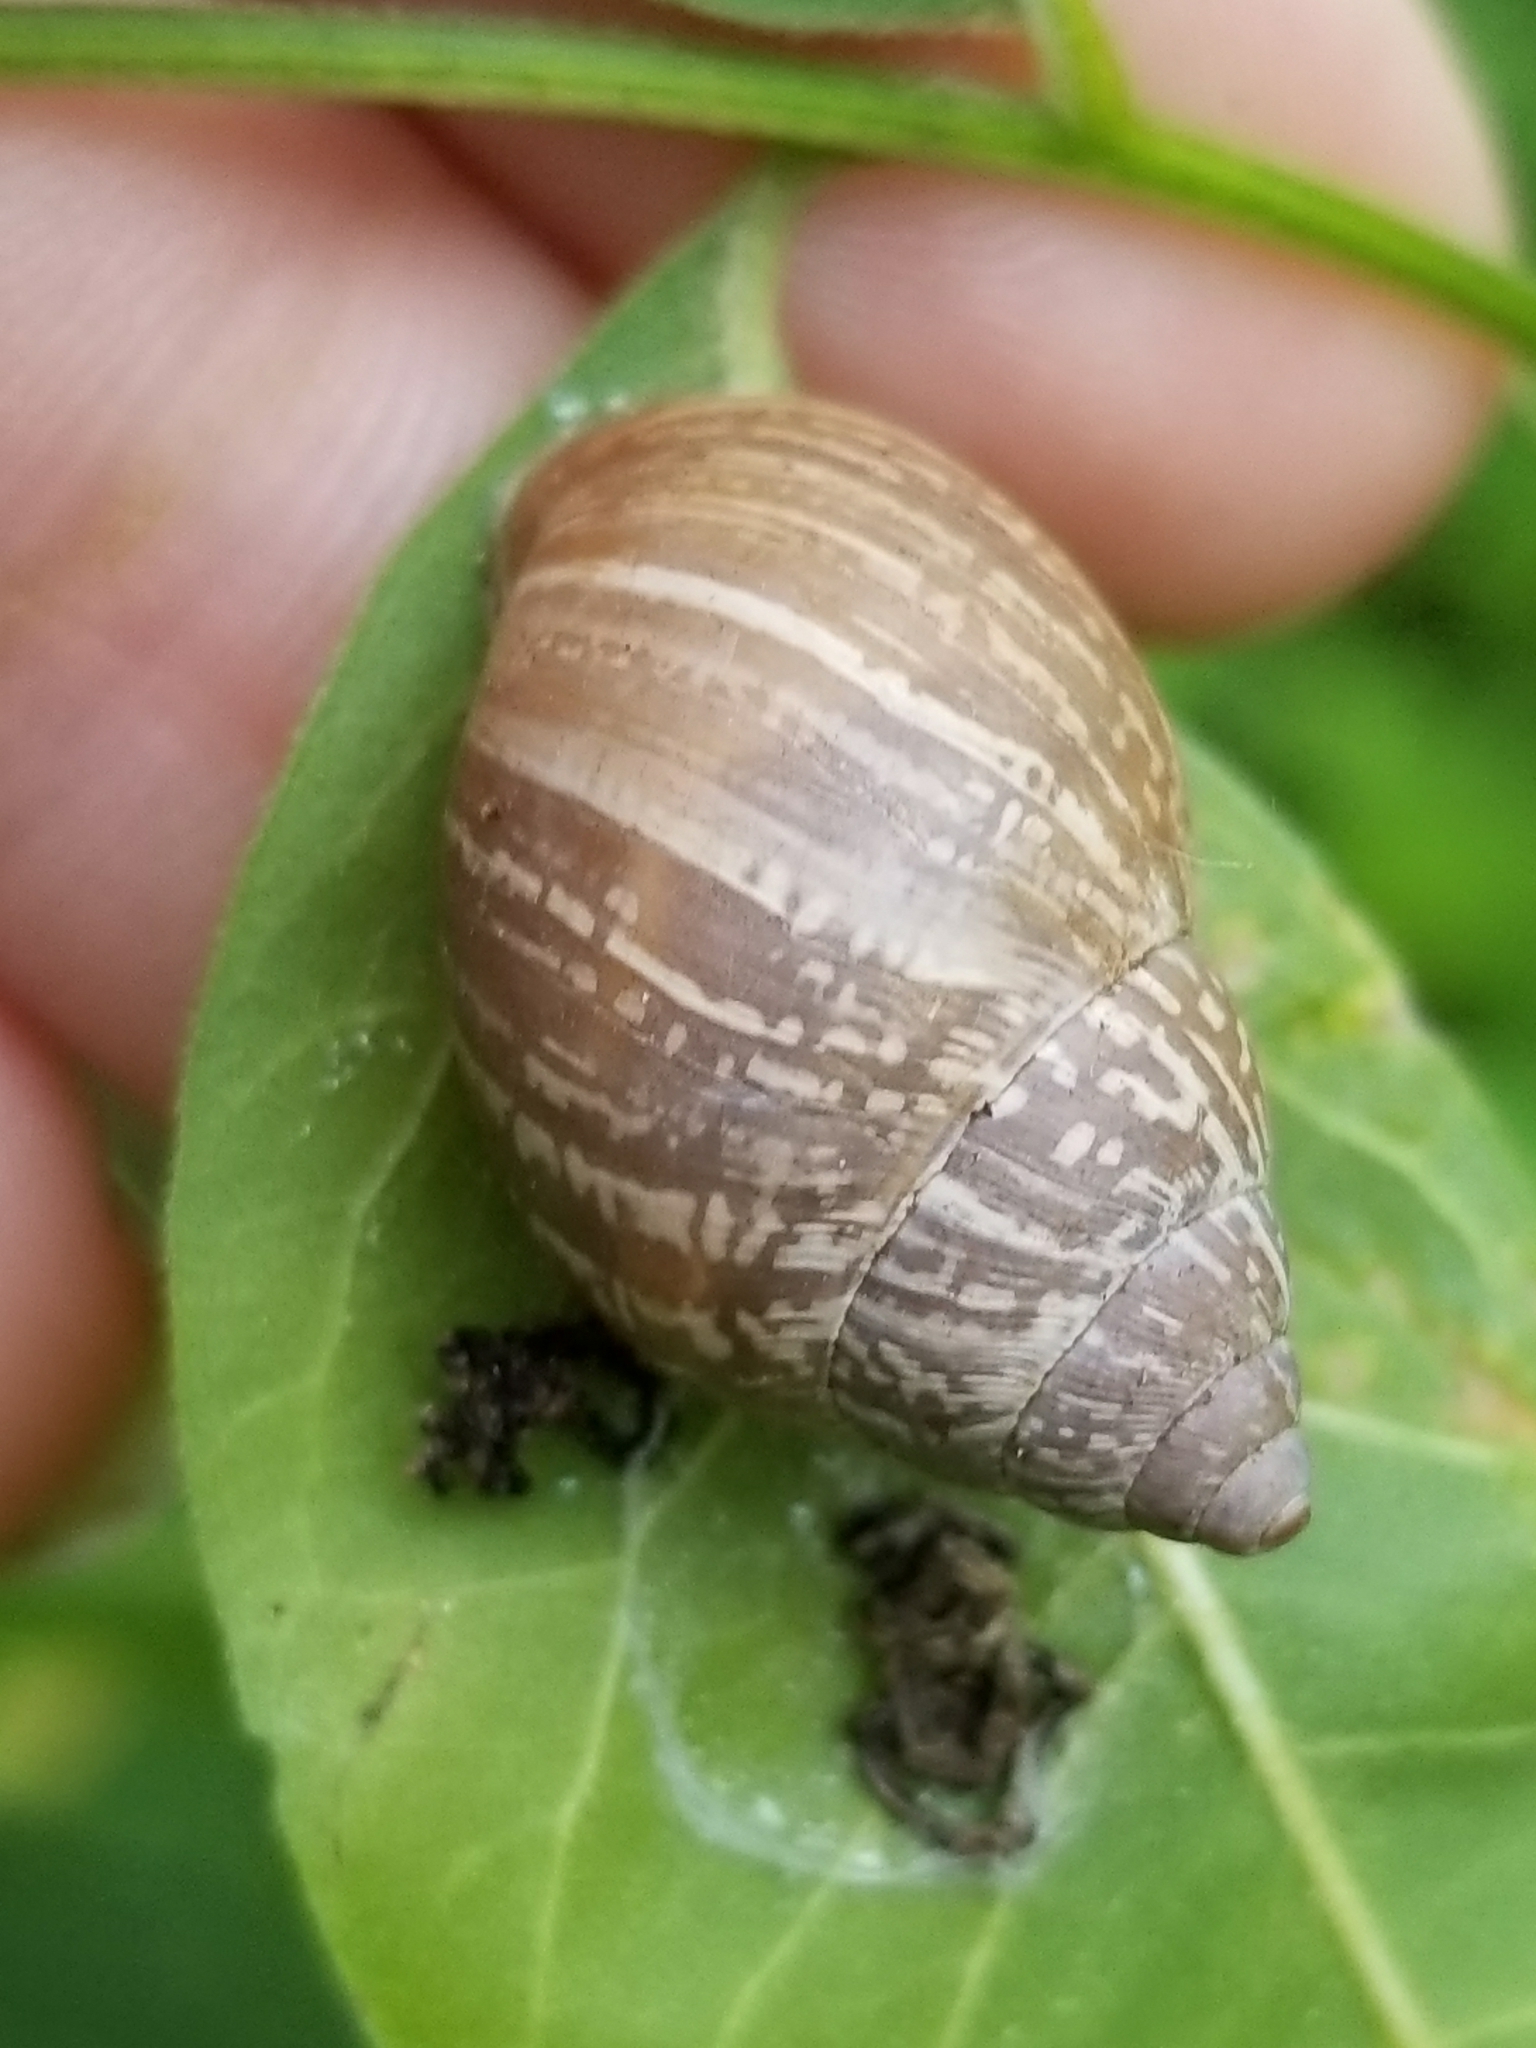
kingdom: Animalia
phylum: Mollusca
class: Gastropoda
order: Stylommatophora
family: Bulimulidae
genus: Rabdotus
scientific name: Rabdotus dealbatus
